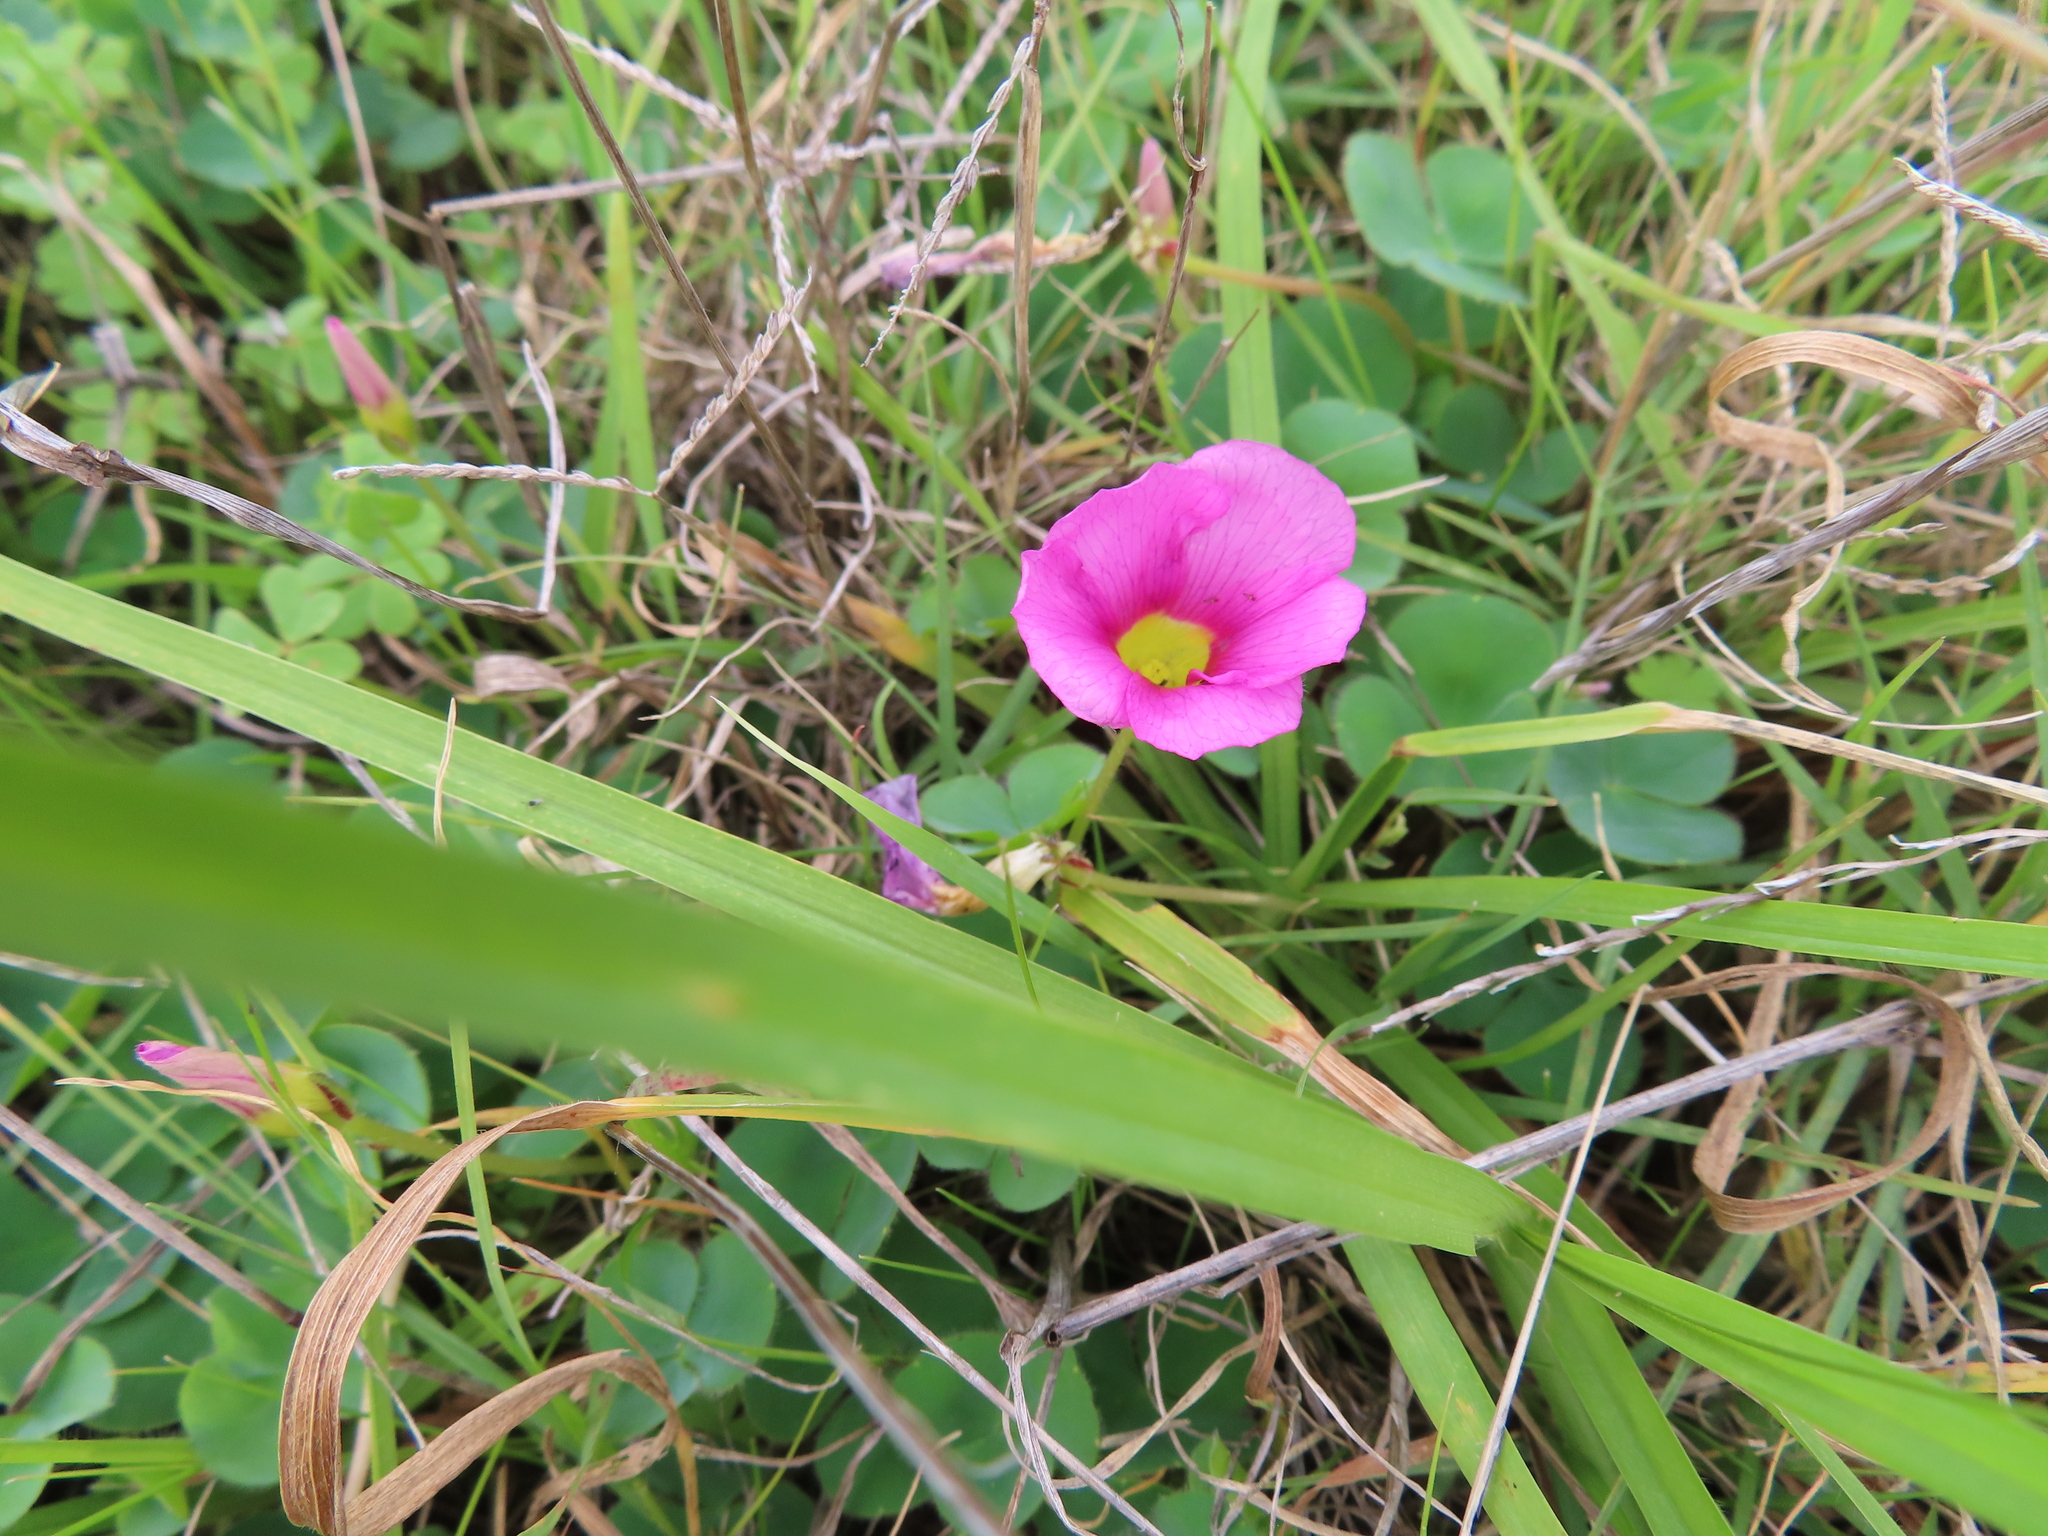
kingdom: Plantae
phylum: Tracheophyta
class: Magnoliopsida
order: Oxalidales
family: Oxalidaceae
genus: Oxalis
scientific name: Oxalis purpurea
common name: Purple woodsorrel
